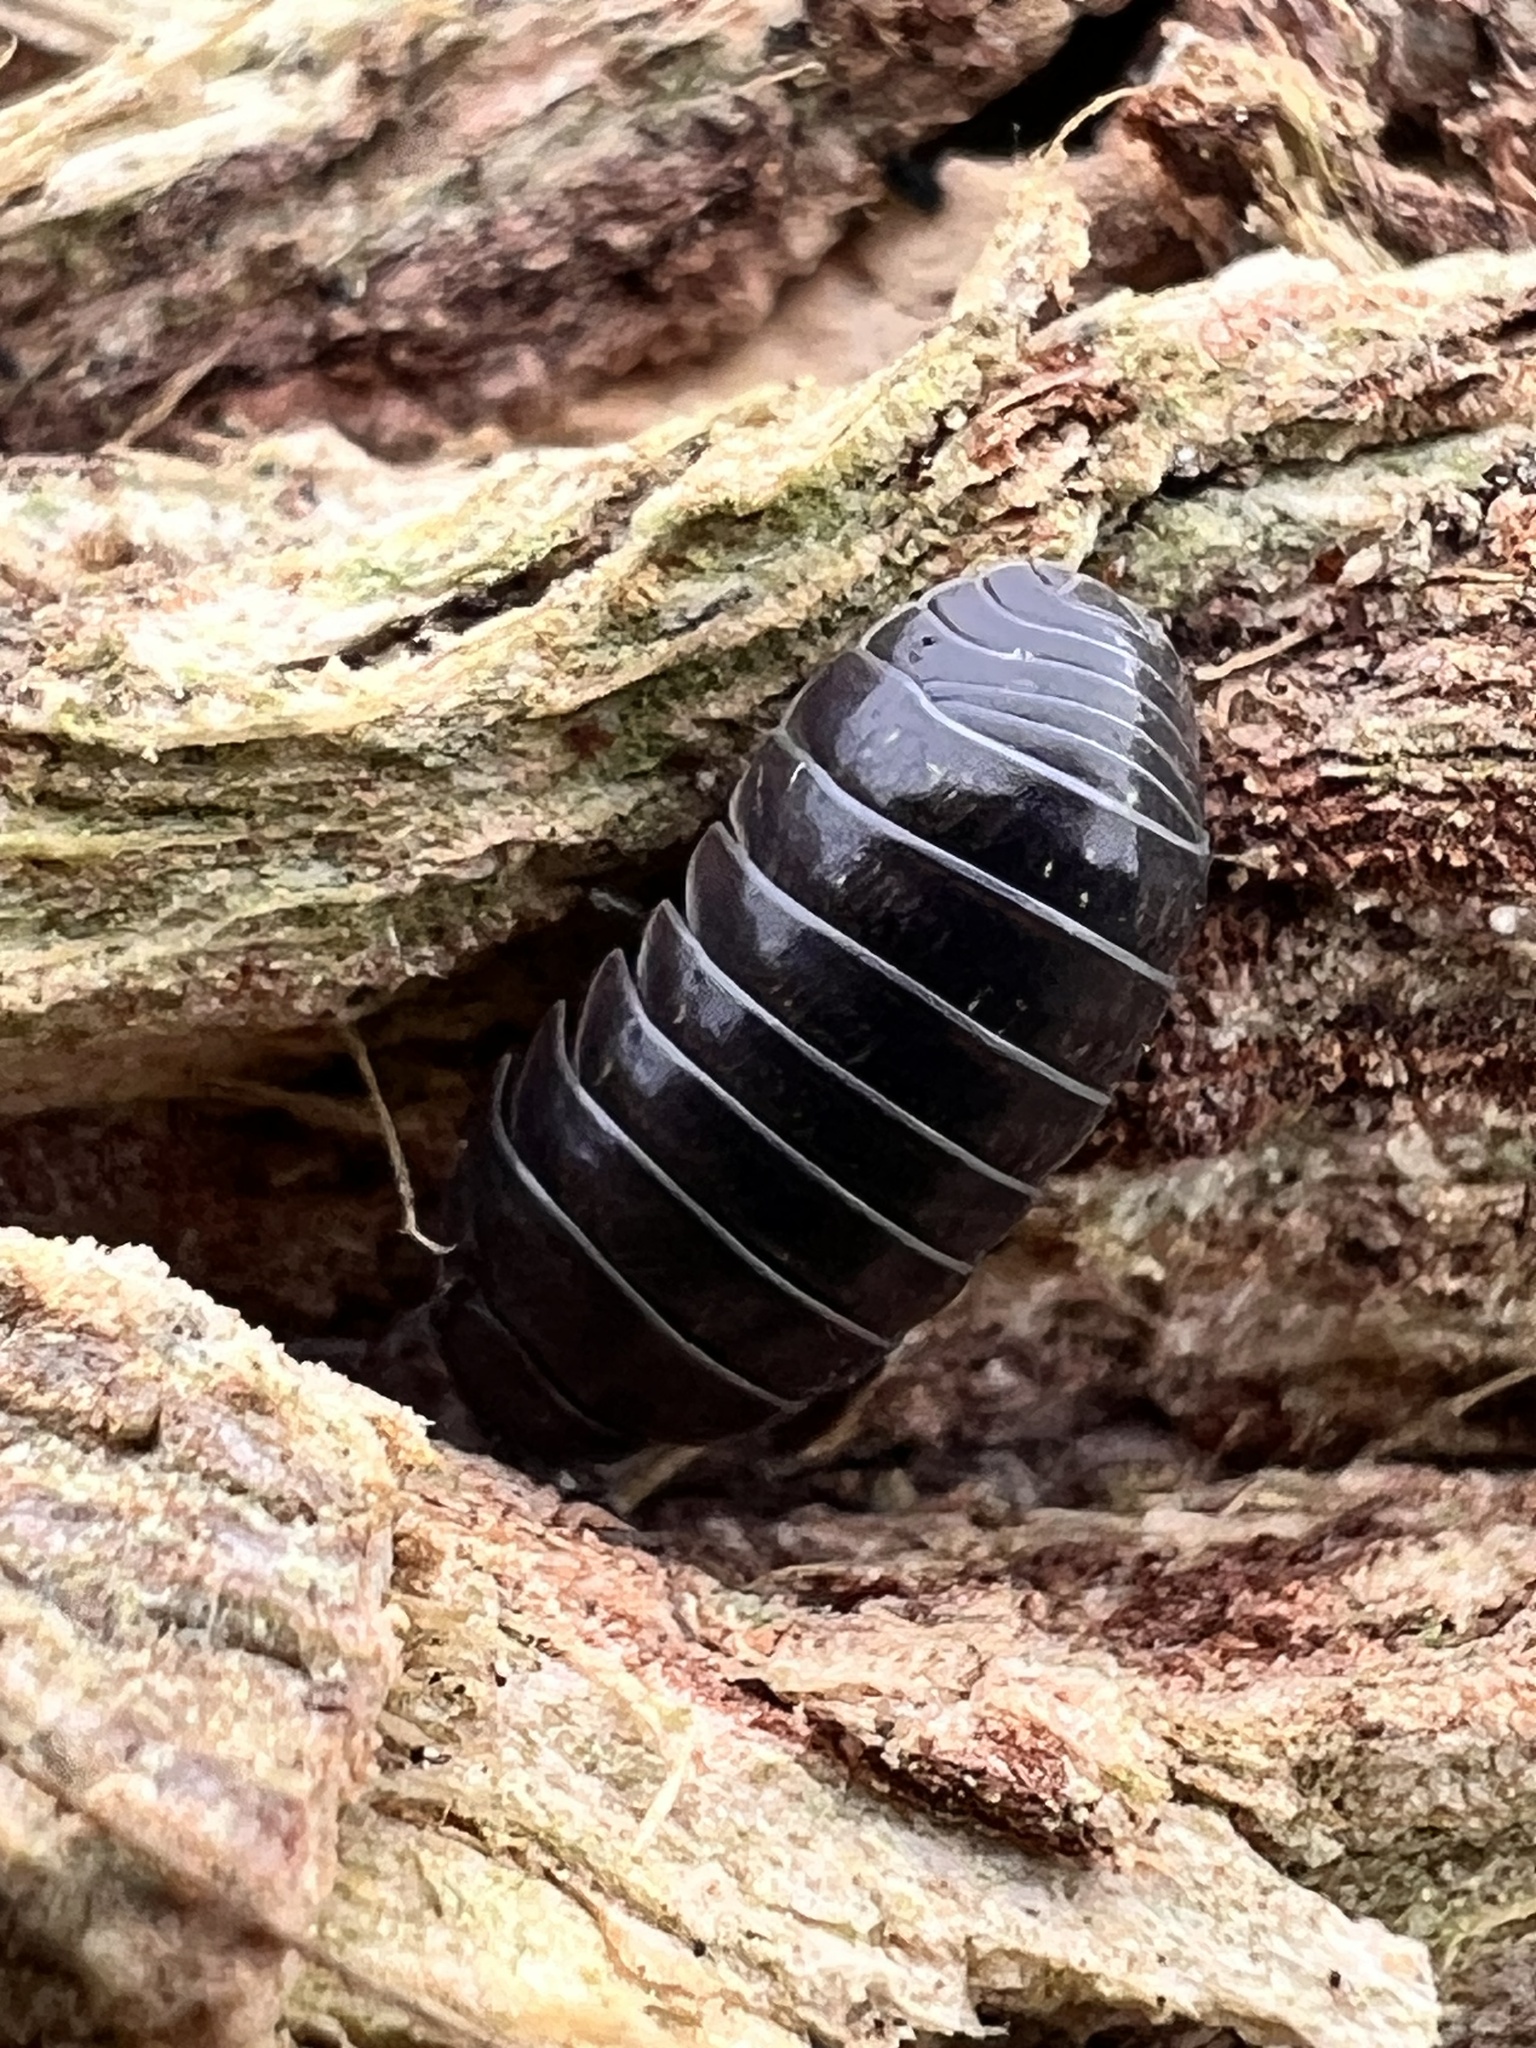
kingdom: Animalia
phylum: Arthropoda
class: Malacostraca
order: Isopoda
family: Armadillidiidae
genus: Armadillidium
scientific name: Armadillidium vulgare
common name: Common pill woodlouse
